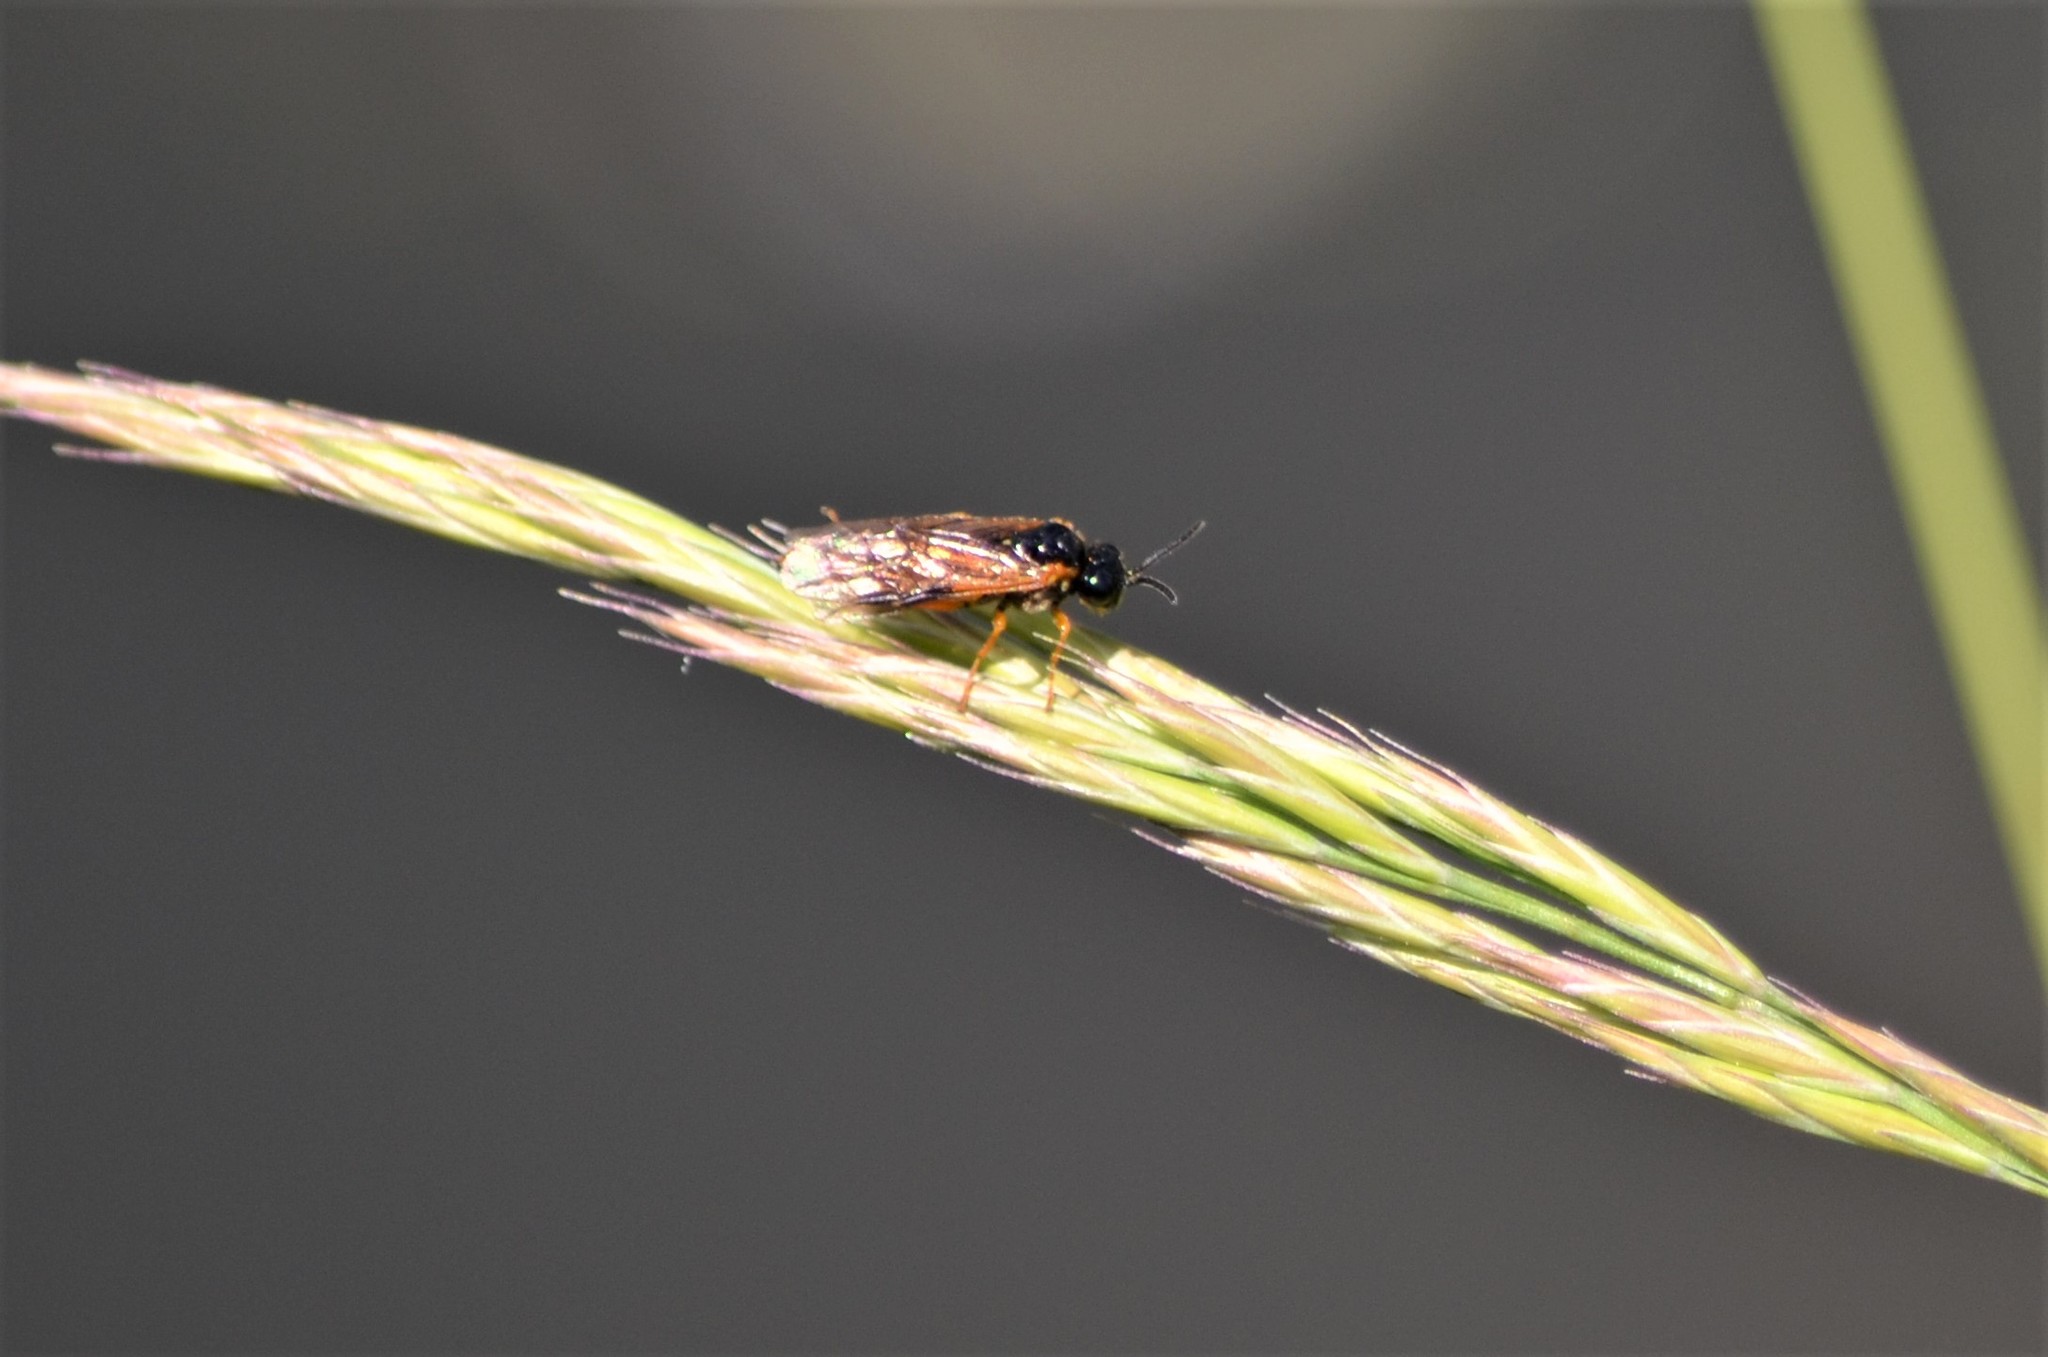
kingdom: Animalia
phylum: Arthropoda
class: Insecta
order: Hymenoptera
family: Tenthredinidae
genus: Selandria
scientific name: Selandria serva
